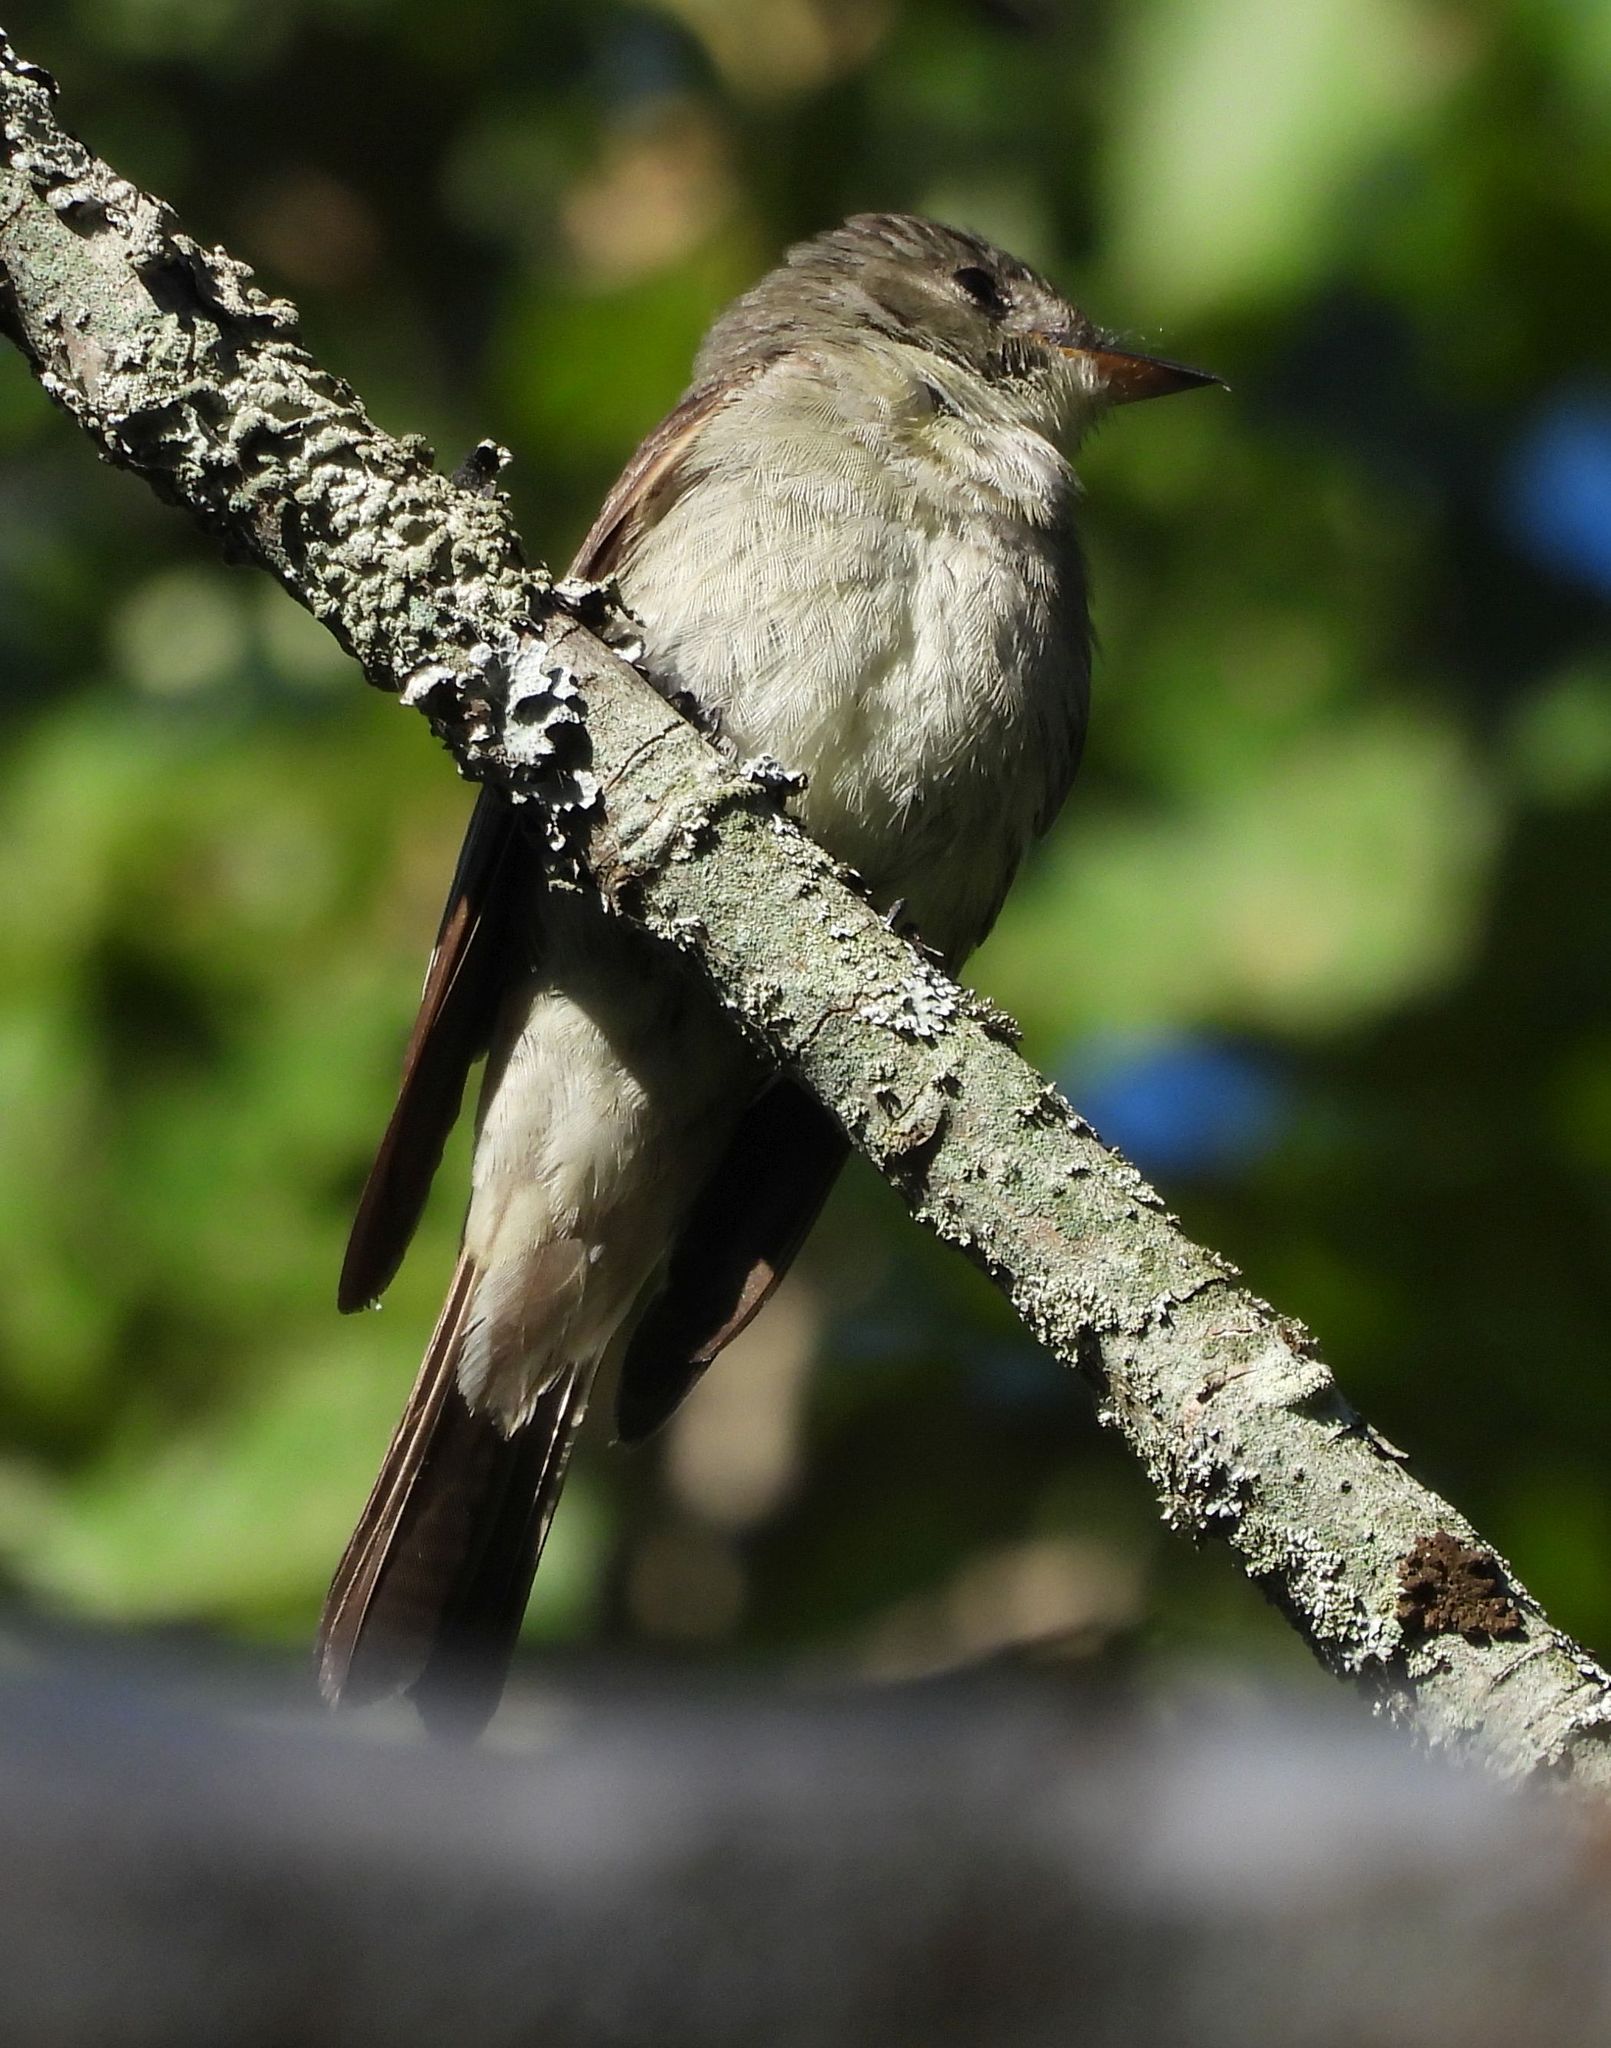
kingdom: Animalia
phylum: Chordata
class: Aves
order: Passeriformes
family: Tyrannidae
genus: Contopus
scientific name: Contopus virens
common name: Eastern wood-pewee
